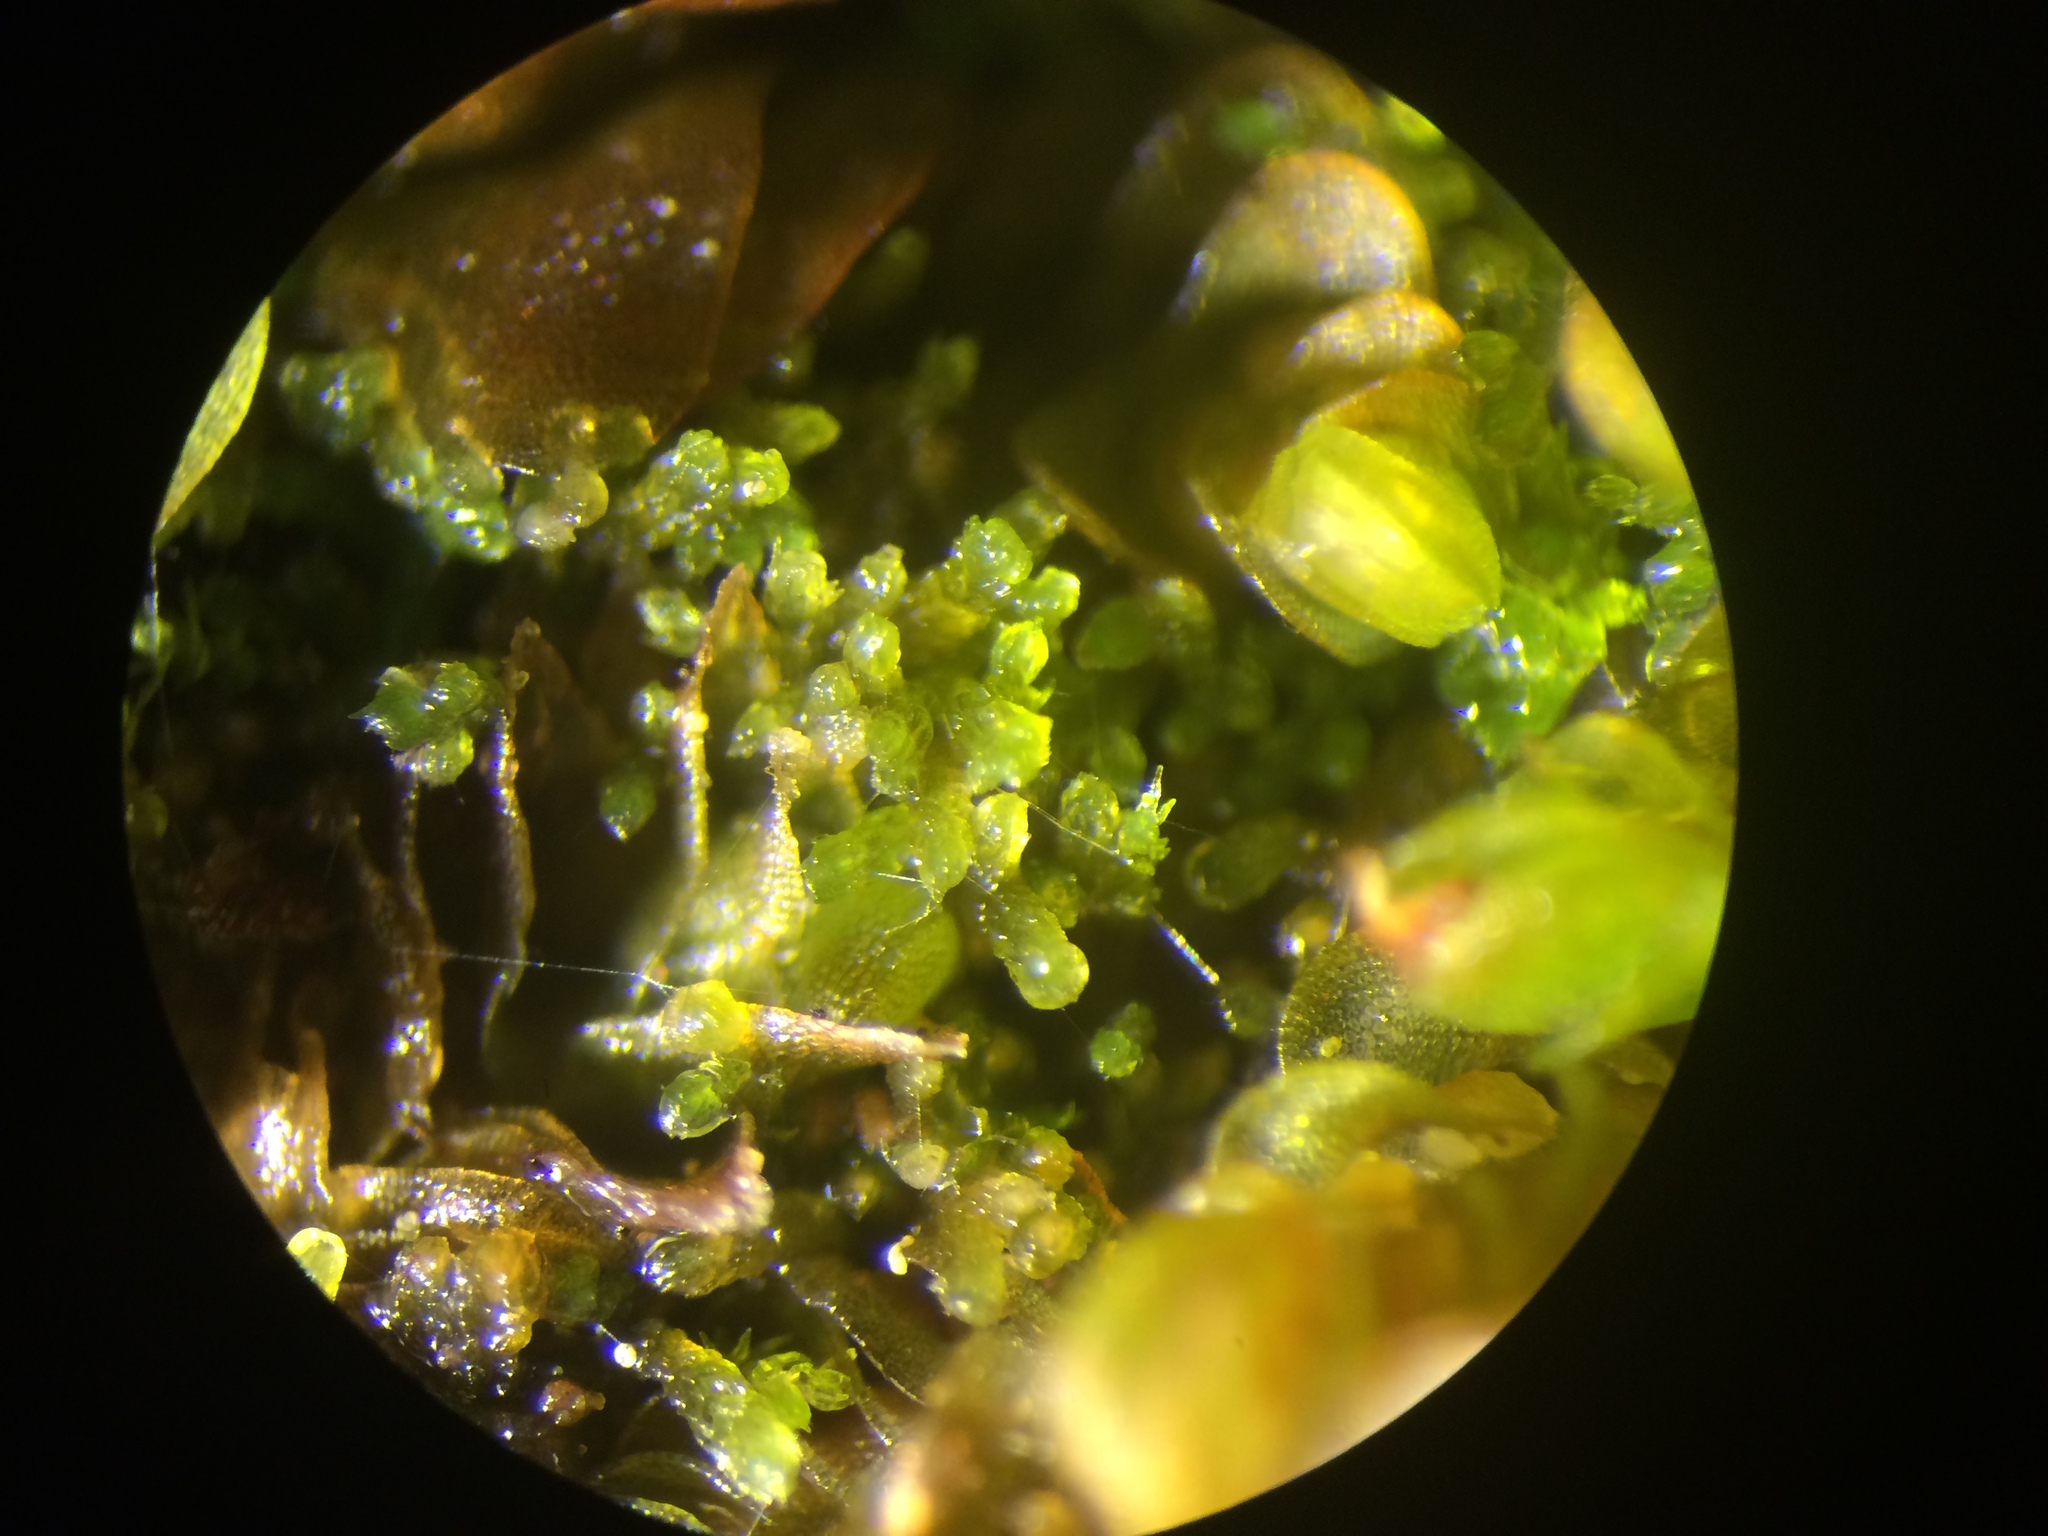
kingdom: Plantae
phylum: Marchantiophyta
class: Jungermanniopsida
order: Jungermanniales
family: Lepidoziaceae
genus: Kurzia
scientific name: Kurzia pauciflora
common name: Bristly fingerwort
